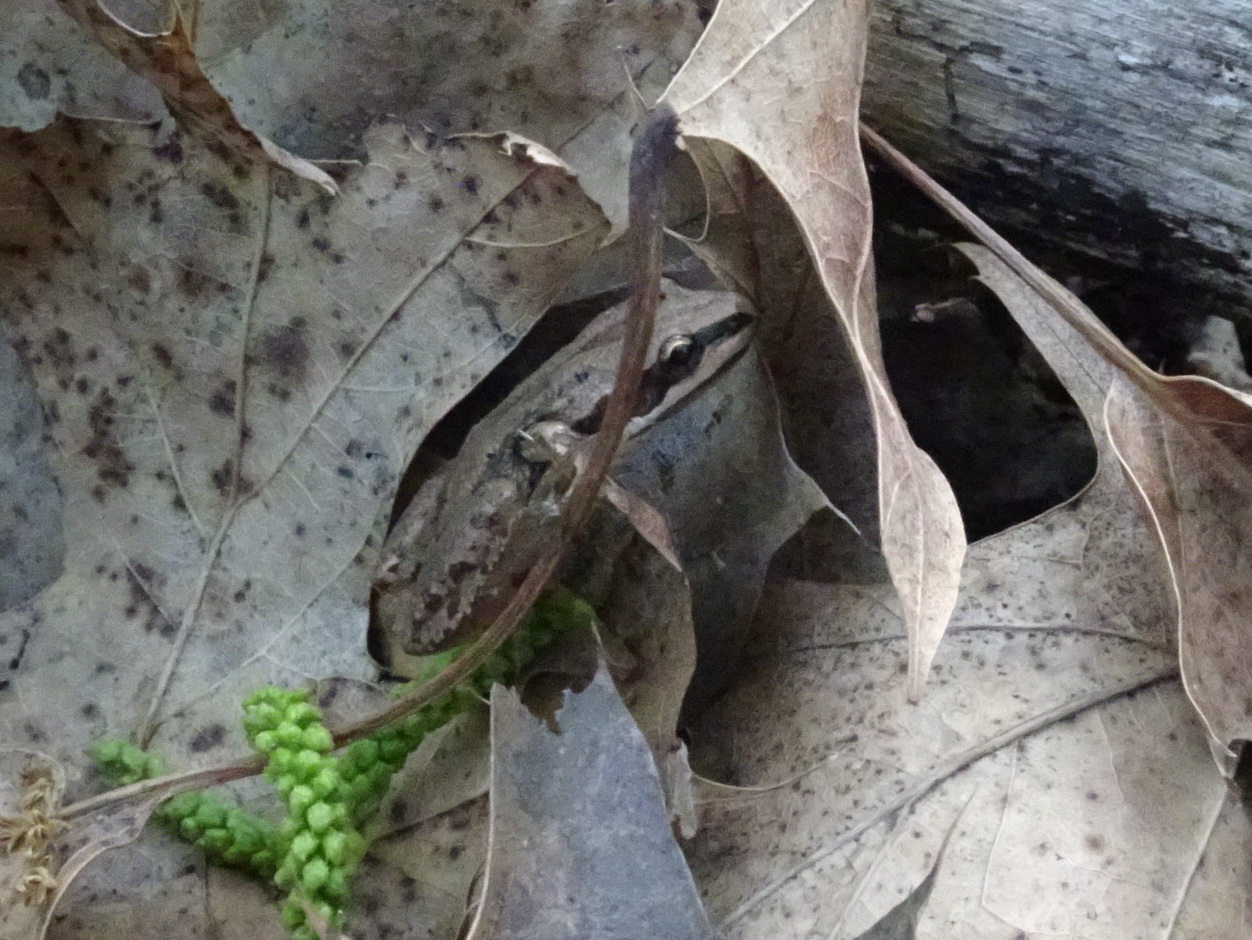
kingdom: Animalia
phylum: Chordata
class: Amphibia
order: Anura
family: Hylidae
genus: Pseudacris
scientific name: Pseudacris maculata
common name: Boreal chorus frog
